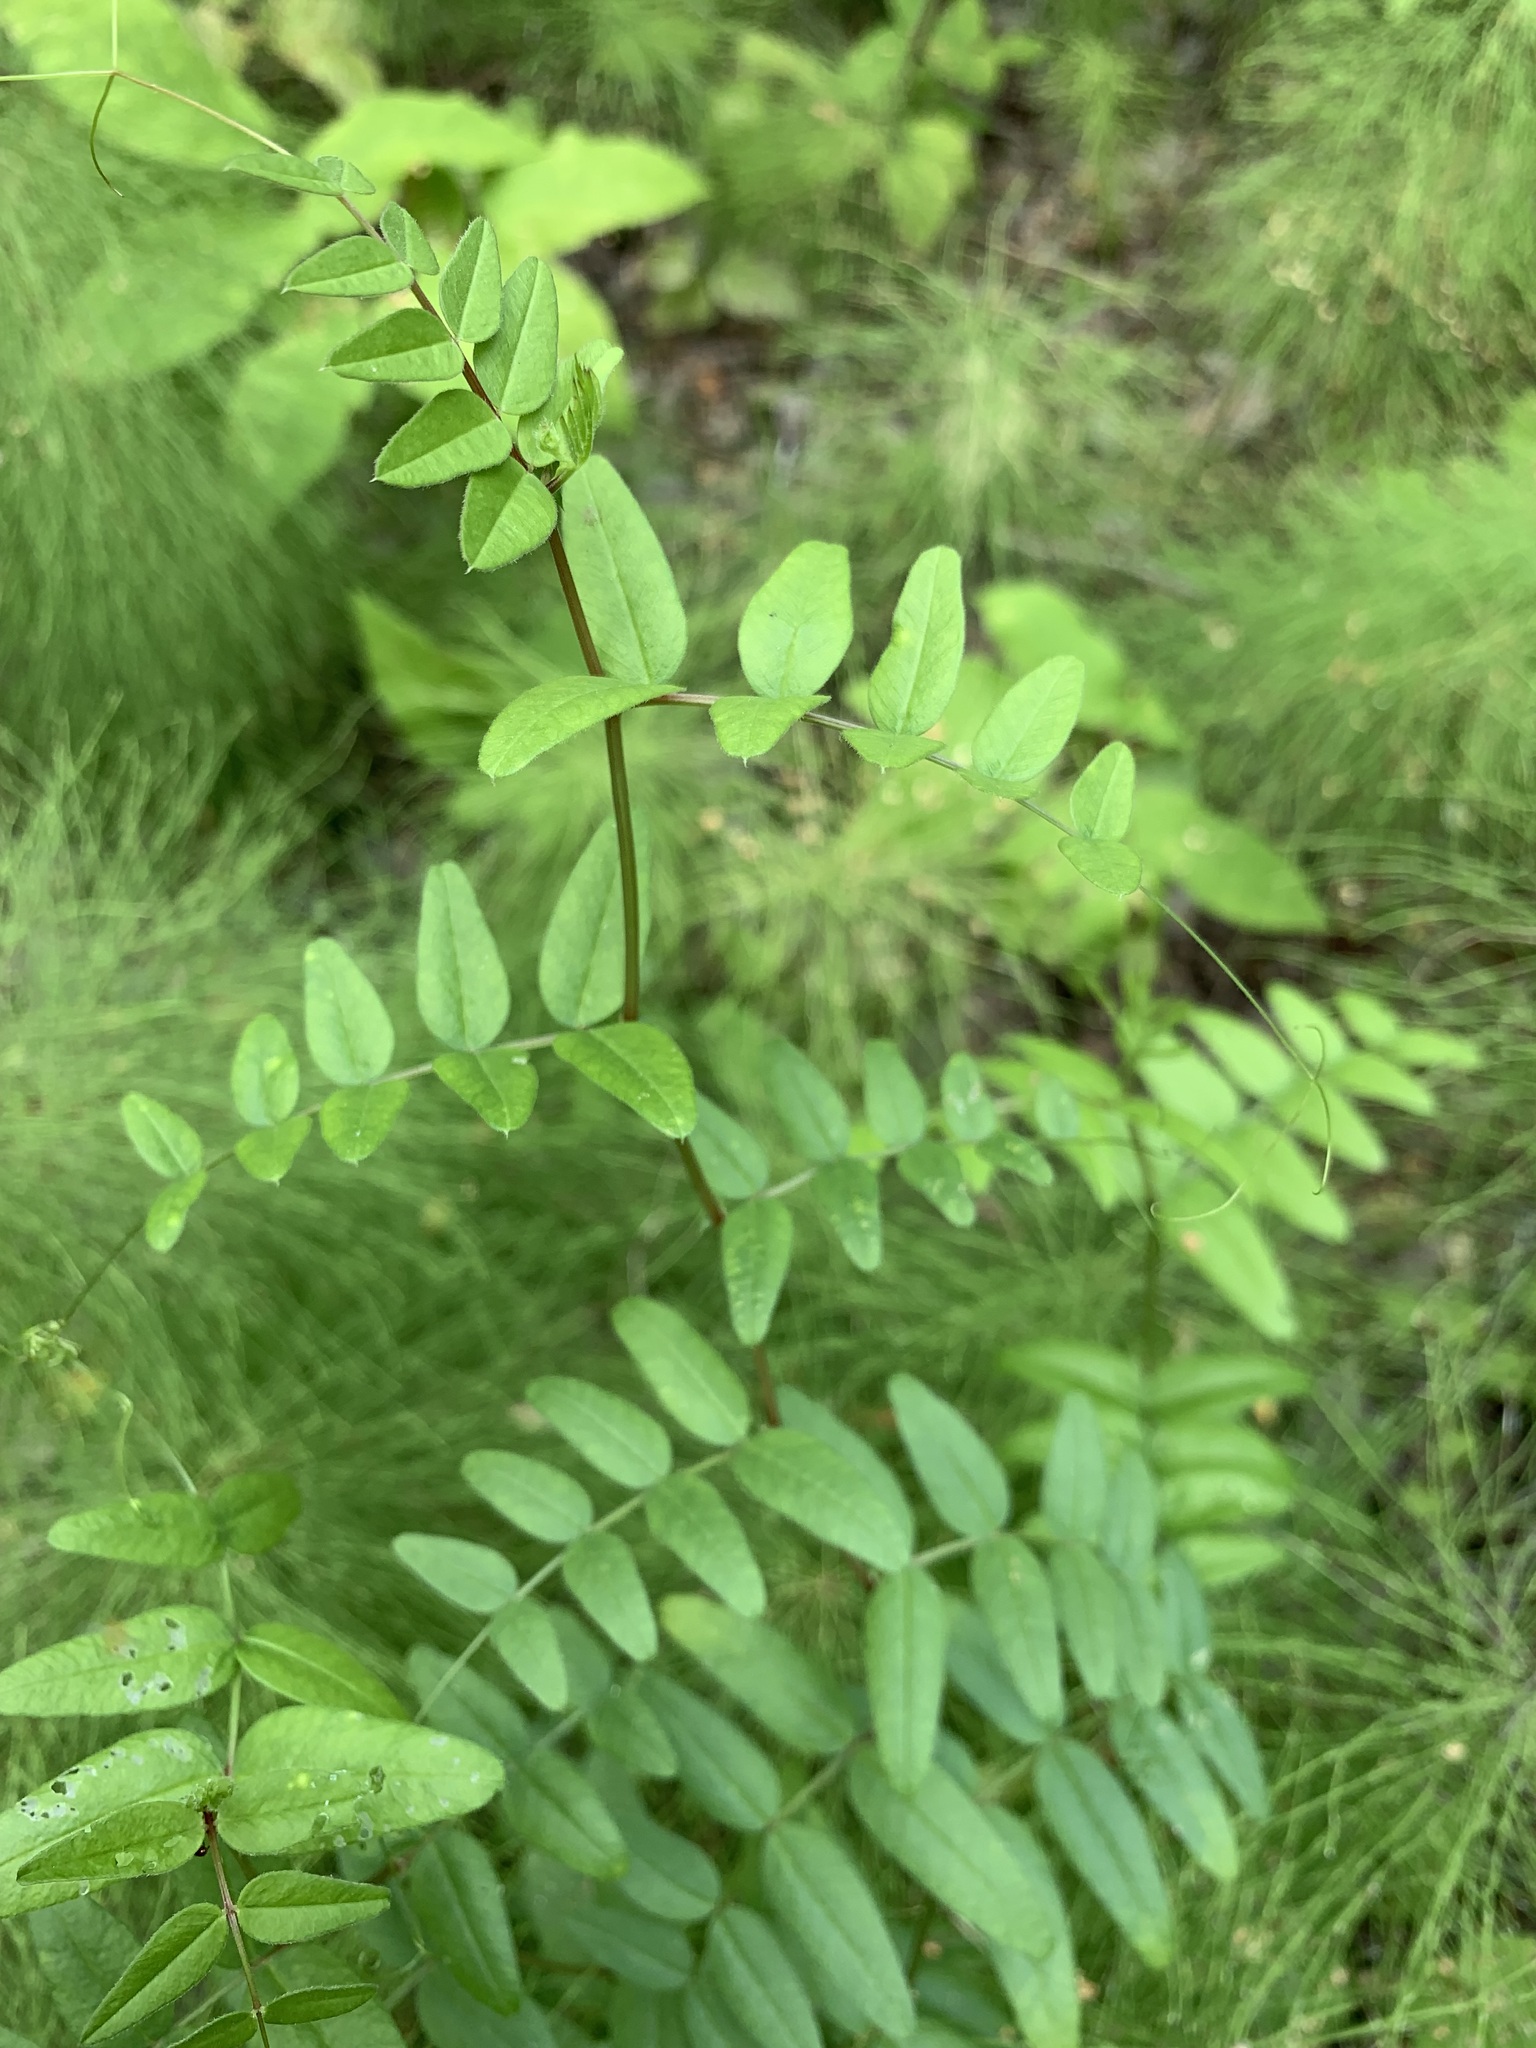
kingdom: Plantae
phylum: Tracheophyta
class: Magnoliopsida
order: Fabales
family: Fabaceae
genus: Vicia
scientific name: Vicia sepium
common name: Bush vetch
